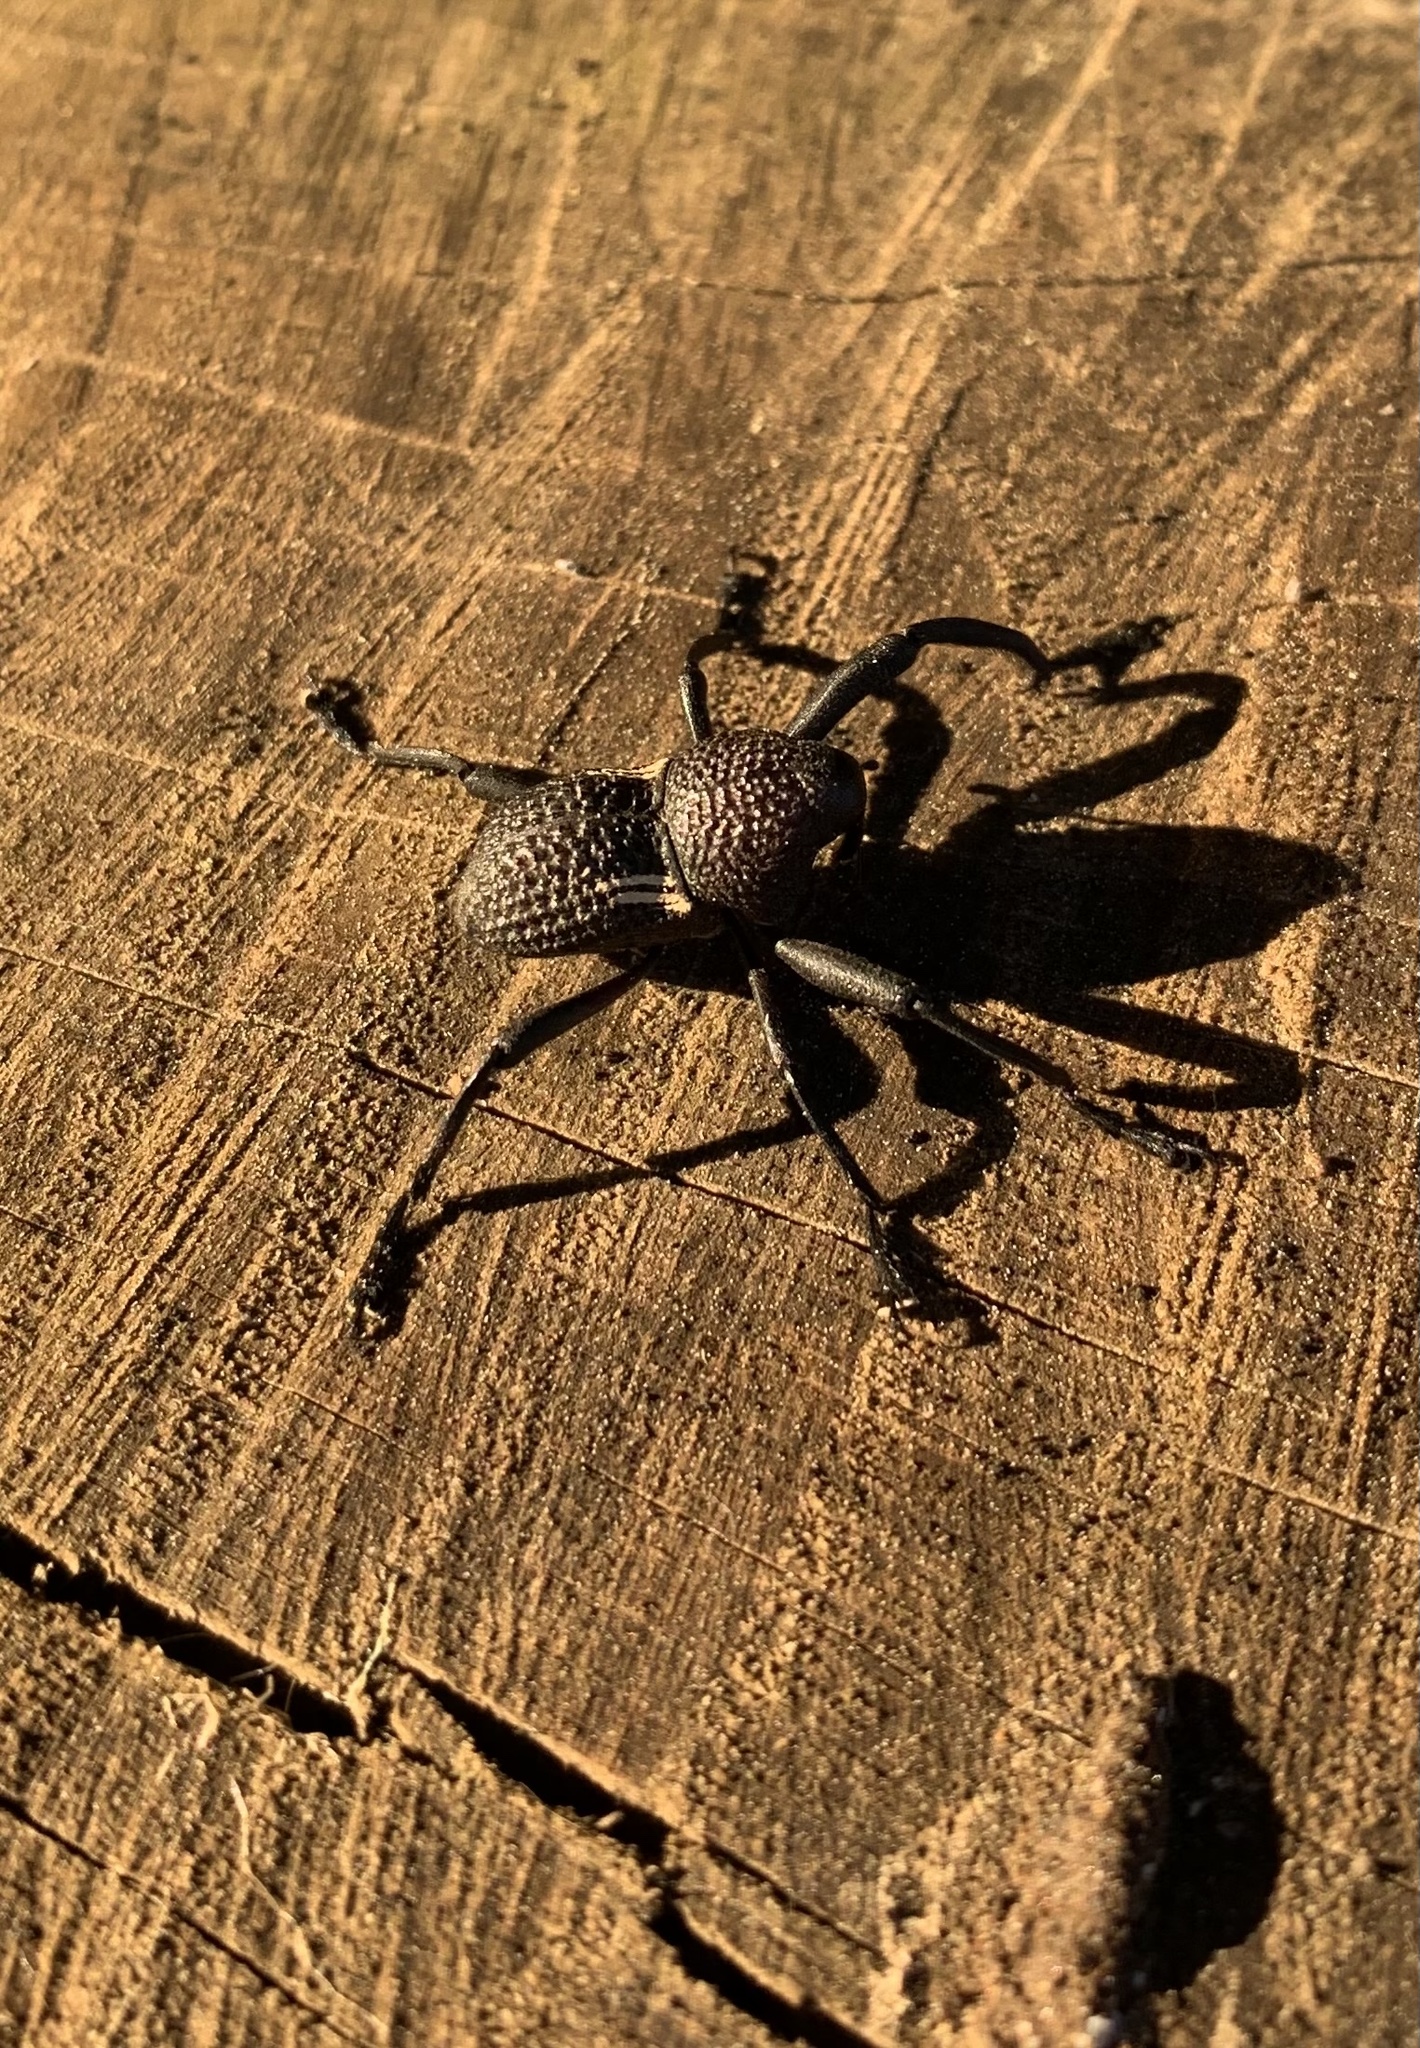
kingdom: Animalia
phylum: Arthropoda
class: Insecta
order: Coleoptera
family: Curculionidae
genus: Rhyephenes
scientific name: Rhyephenes humeralis
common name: Araè±ita chilena del pino
